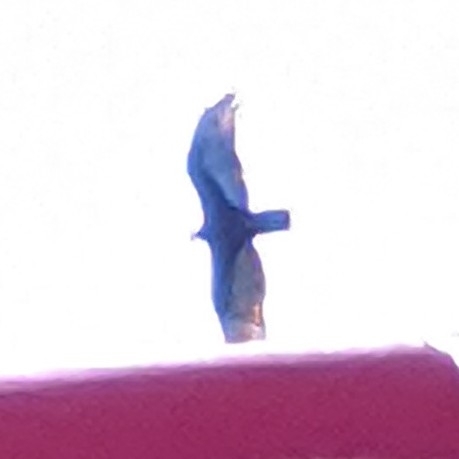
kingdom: Animalia
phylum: Chordata
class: Aves
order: Accipitriformes
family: Cathartidae
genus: Cathartes
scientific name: Cathartes aura
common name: Turkey vulture
